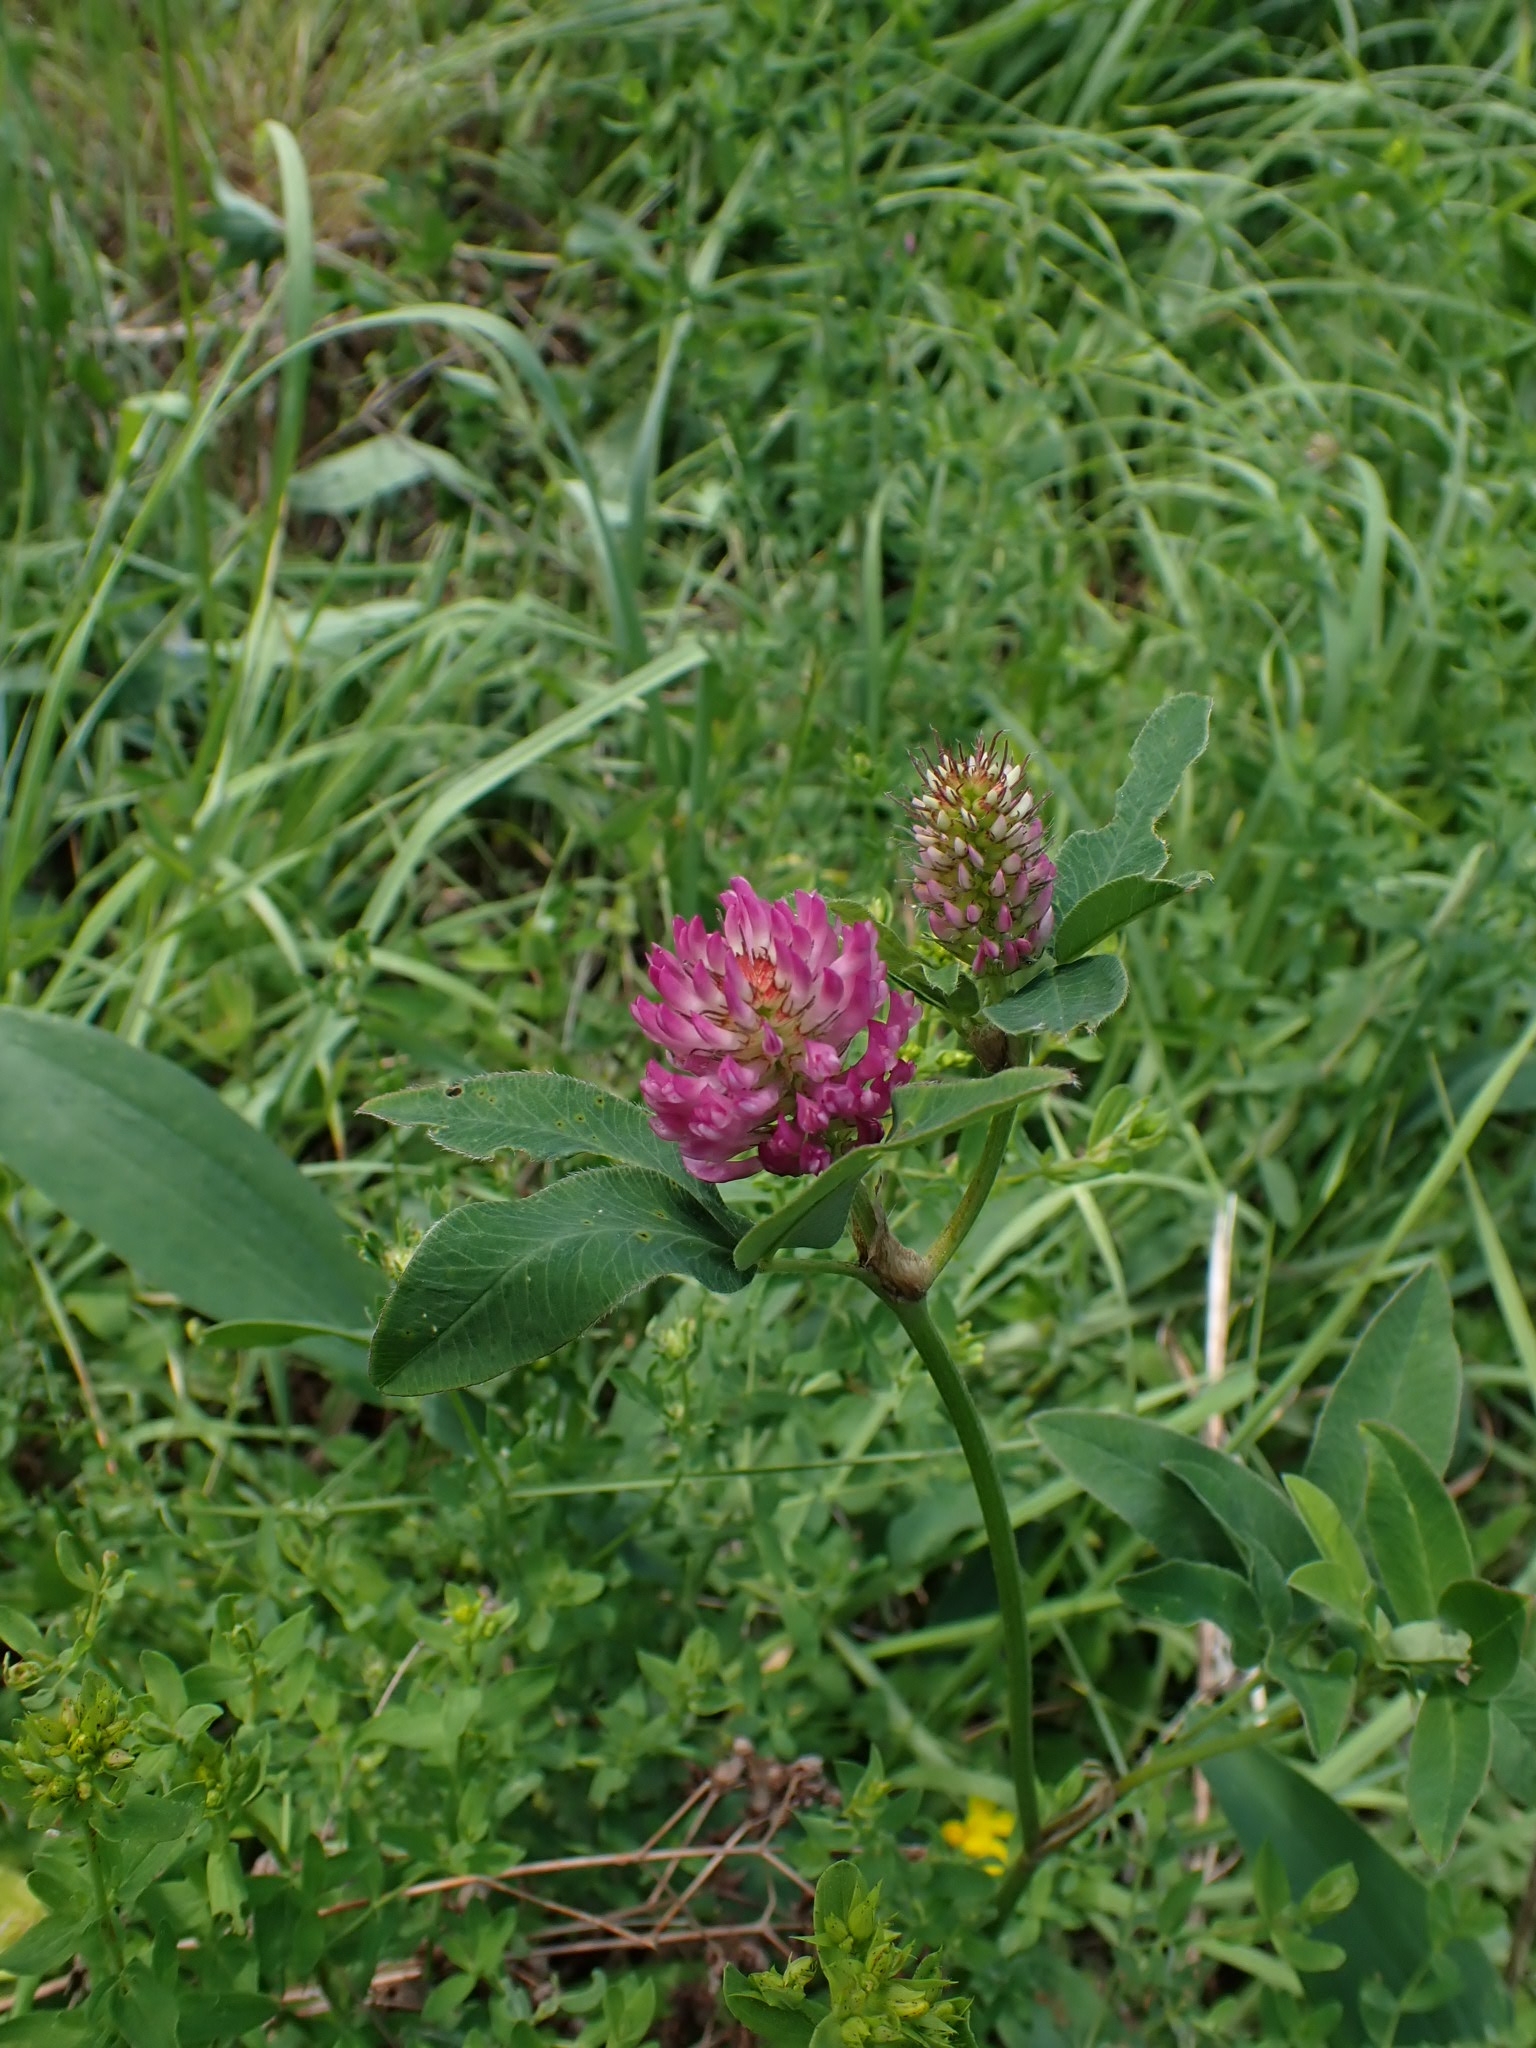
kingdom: Plantae
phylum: Tracheophyta
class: Magnoliopsida
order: Fabales
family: Fabaceae
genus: Trifolium
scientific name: Trifolium medium
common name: Zigzag clover
